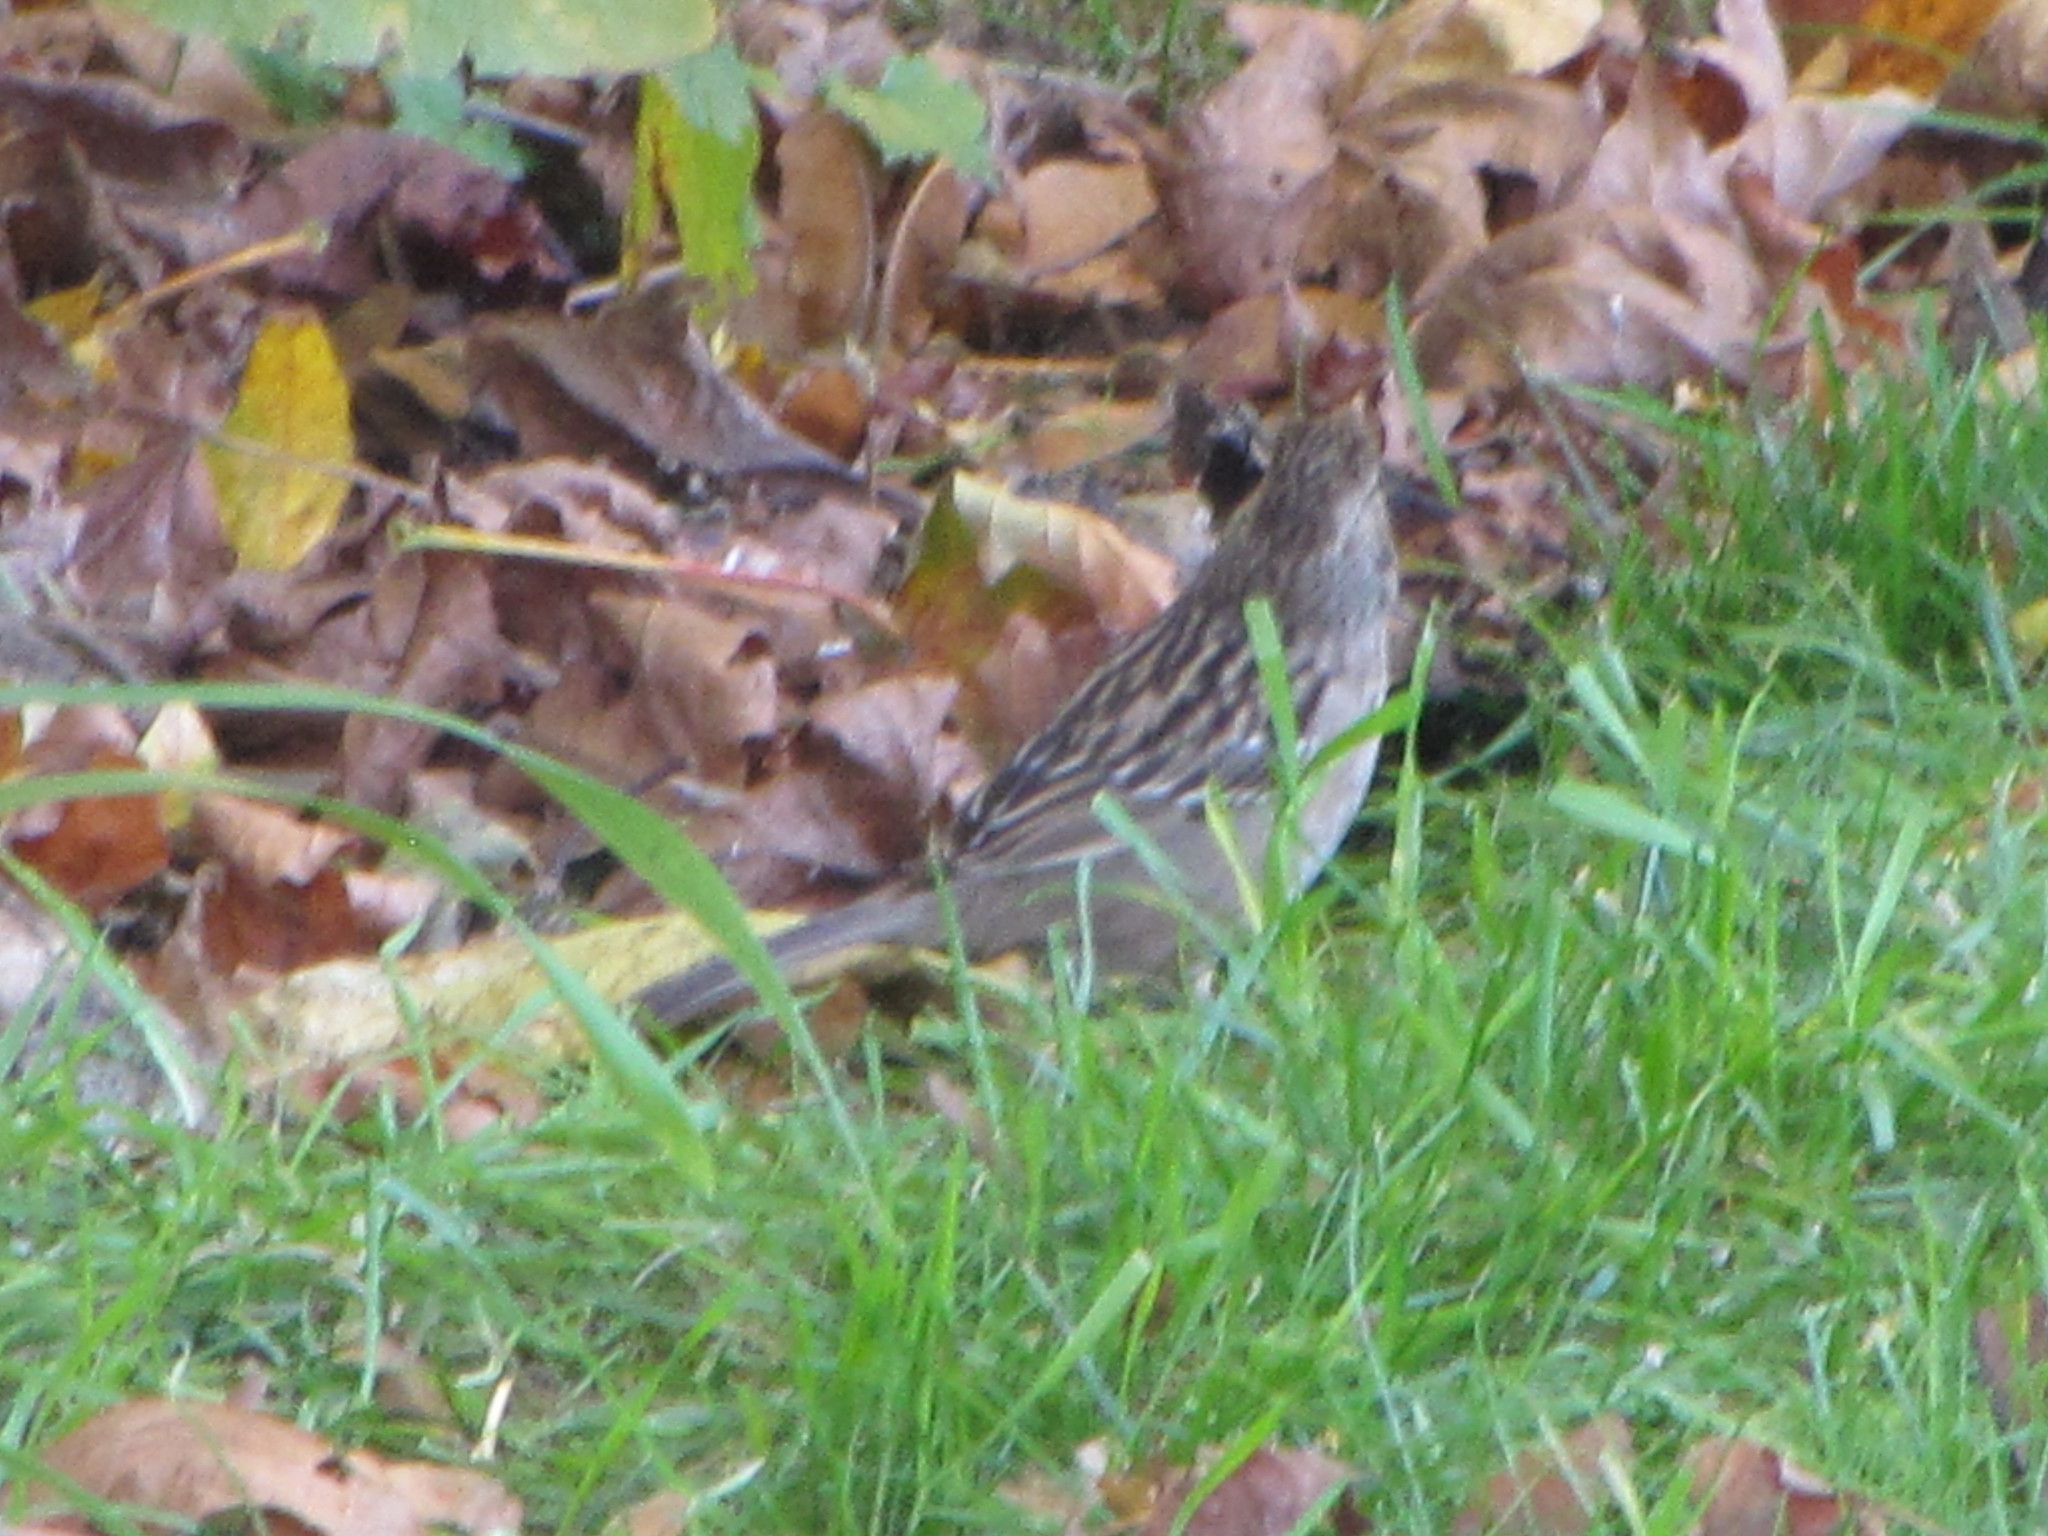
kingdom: Animalia
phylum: Chordata
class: Aves
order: Passeriformes
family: Passerellidae
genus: Zonotrichia
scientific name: Zonotrichia atricapilla
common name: Golden-crowned sparrow
